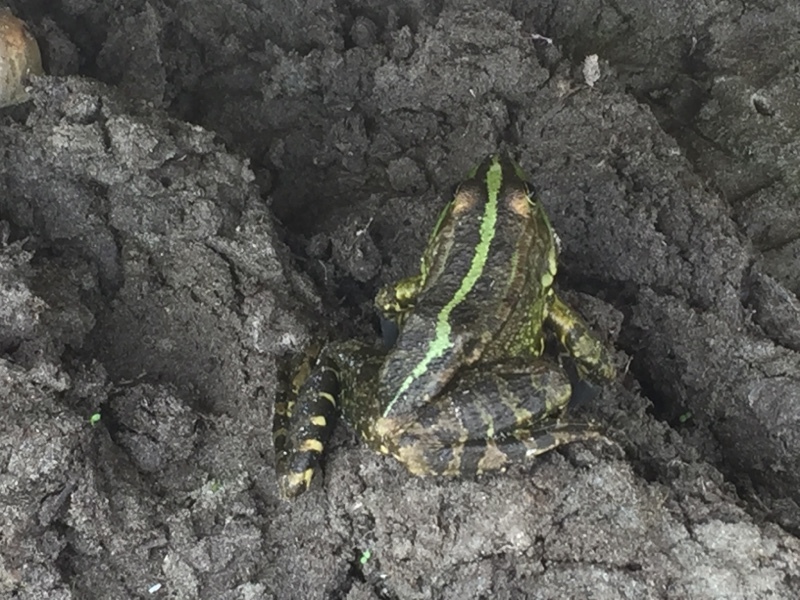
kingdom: Animalia
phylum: Chordata
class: Amphibia
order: Anura
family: Ranidae
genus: Pelophylax
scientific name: Pelophylax ridibundus
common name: Marsh frog
